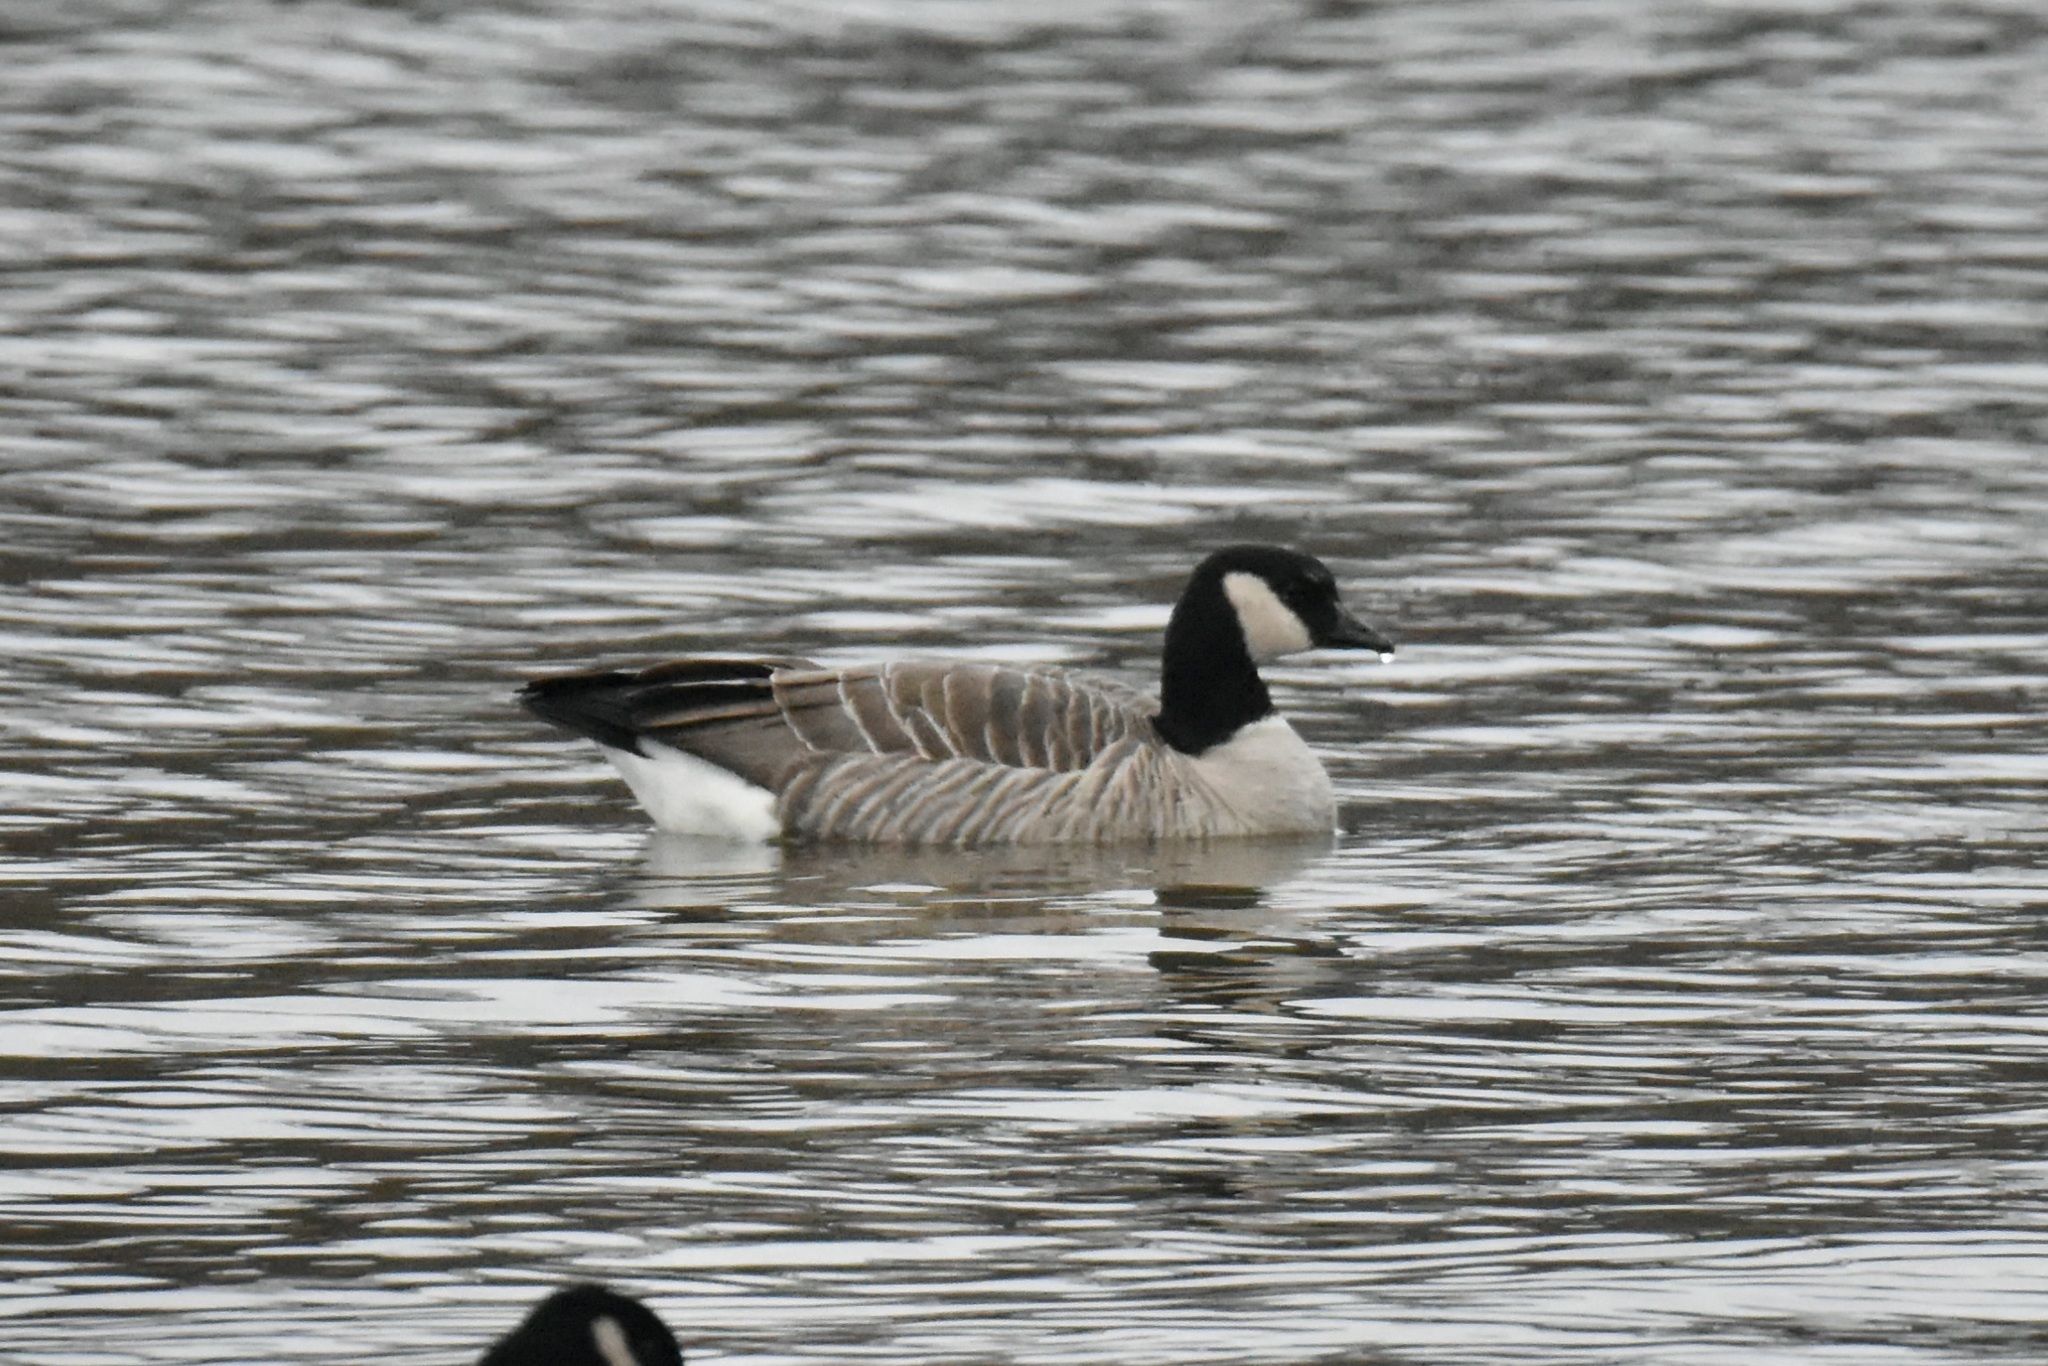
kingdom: Animalia
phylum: Chordata
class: Aves
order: Anseriformes
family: Anatidae
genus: Branta
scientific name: Branta hutchinsii
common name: Cackling goose
